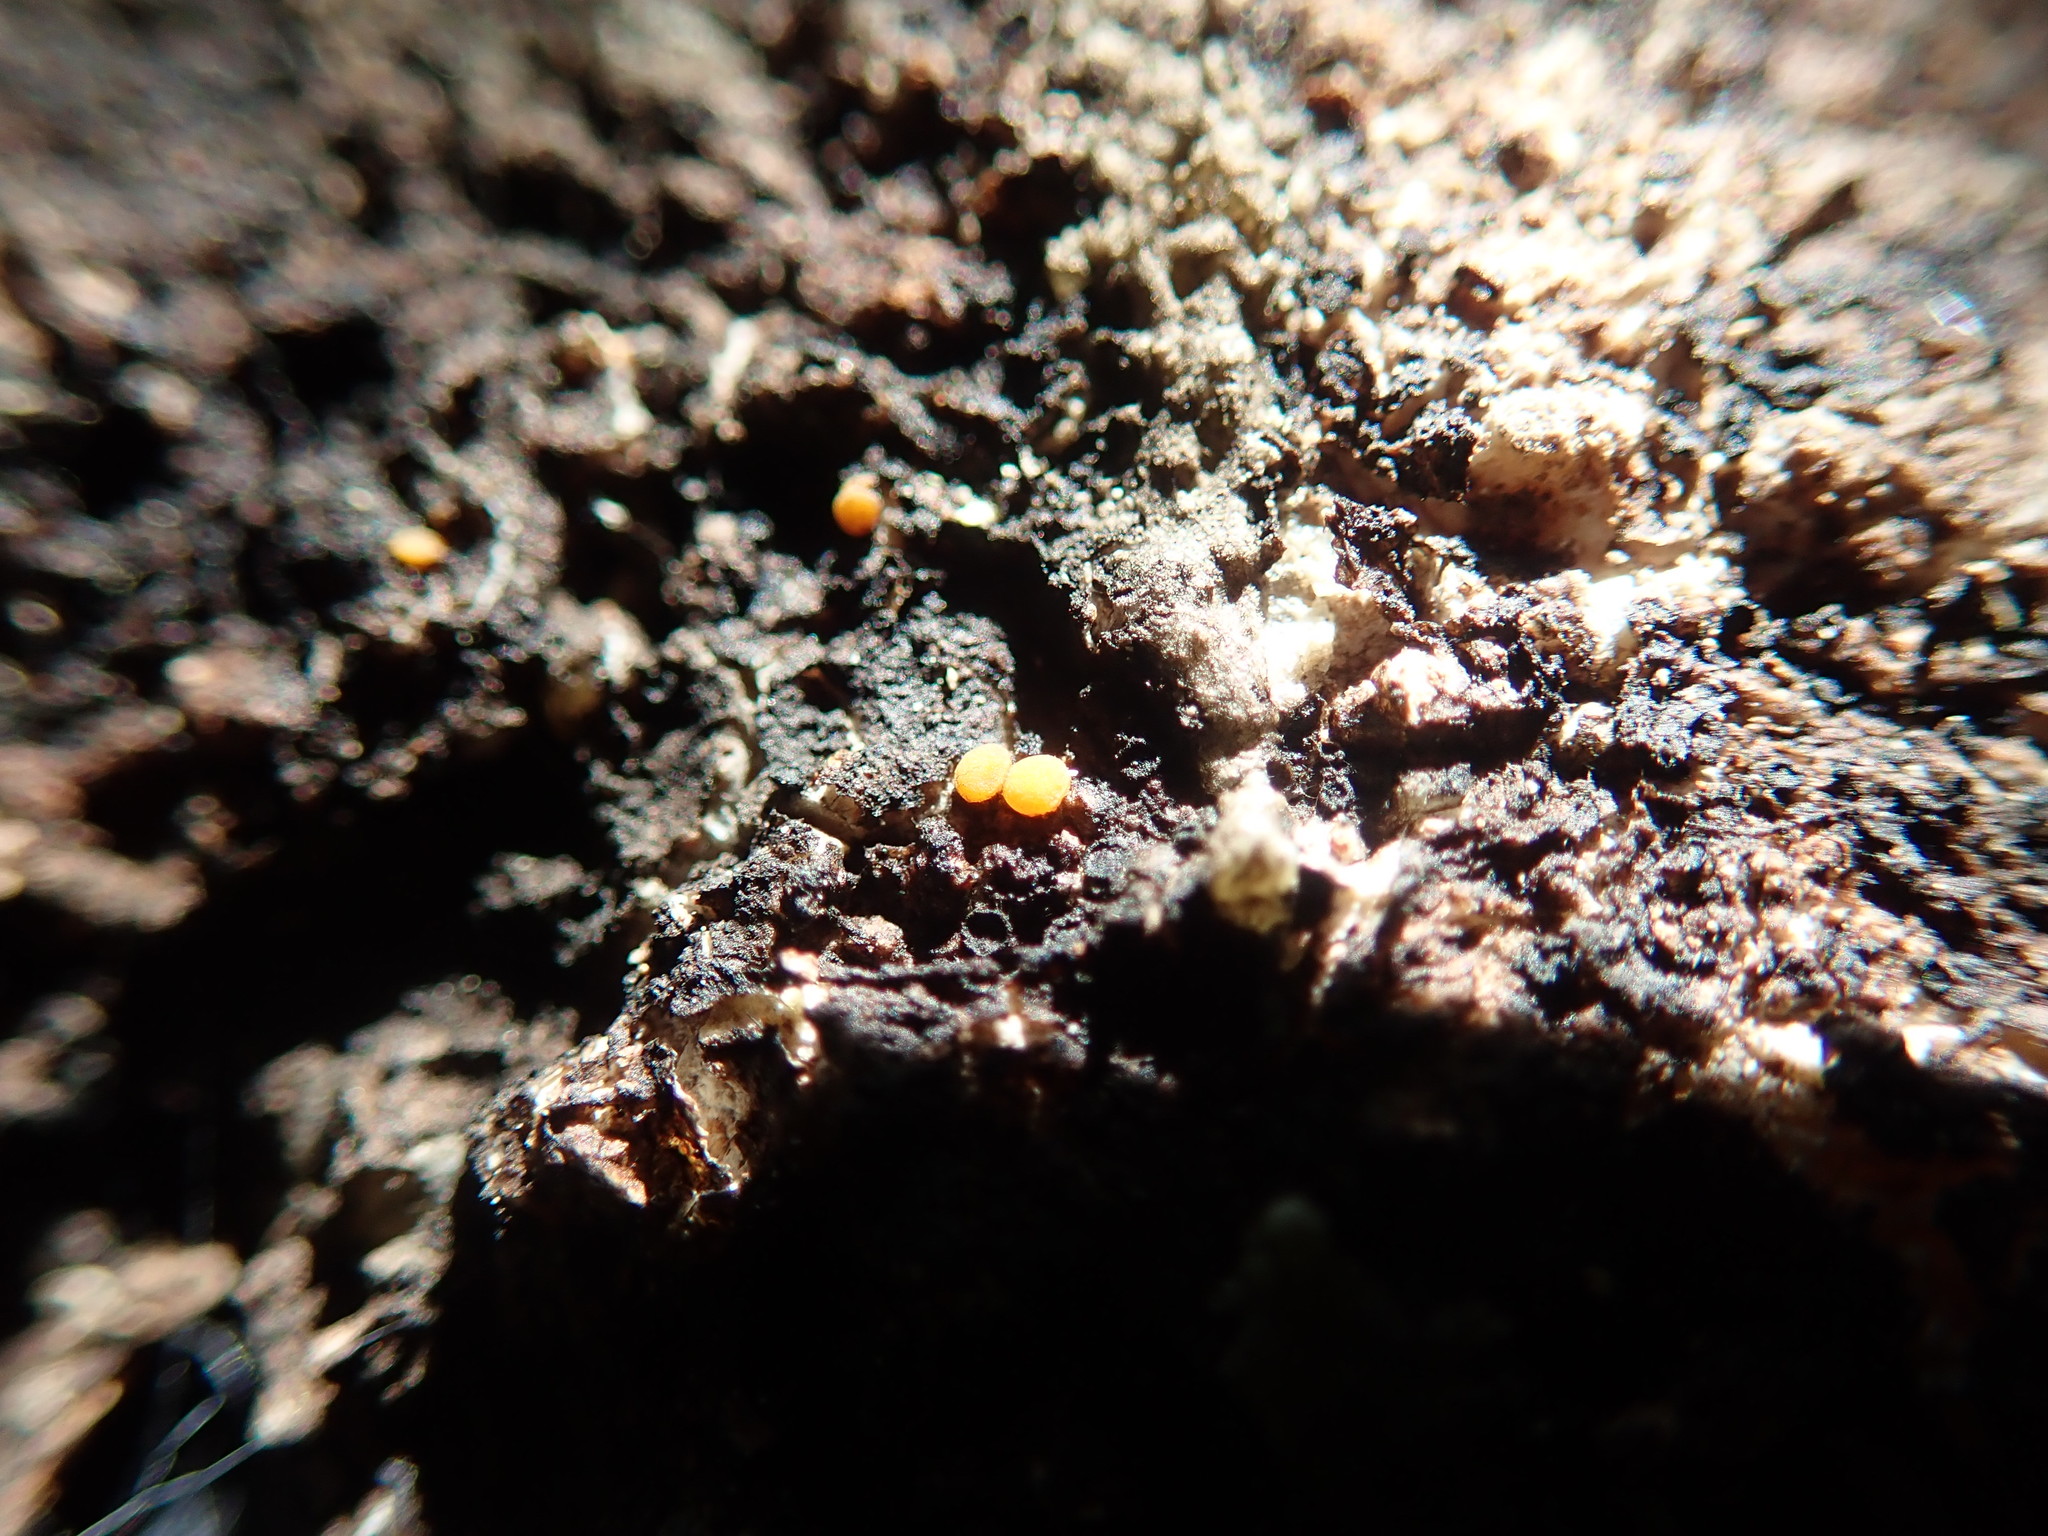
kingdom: Fungi
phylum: Ascomycota
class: Sareomycetes
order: Sareales
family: Sareaceae
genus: Sarea
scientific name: Sarea resinae
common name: Sarea lichen
